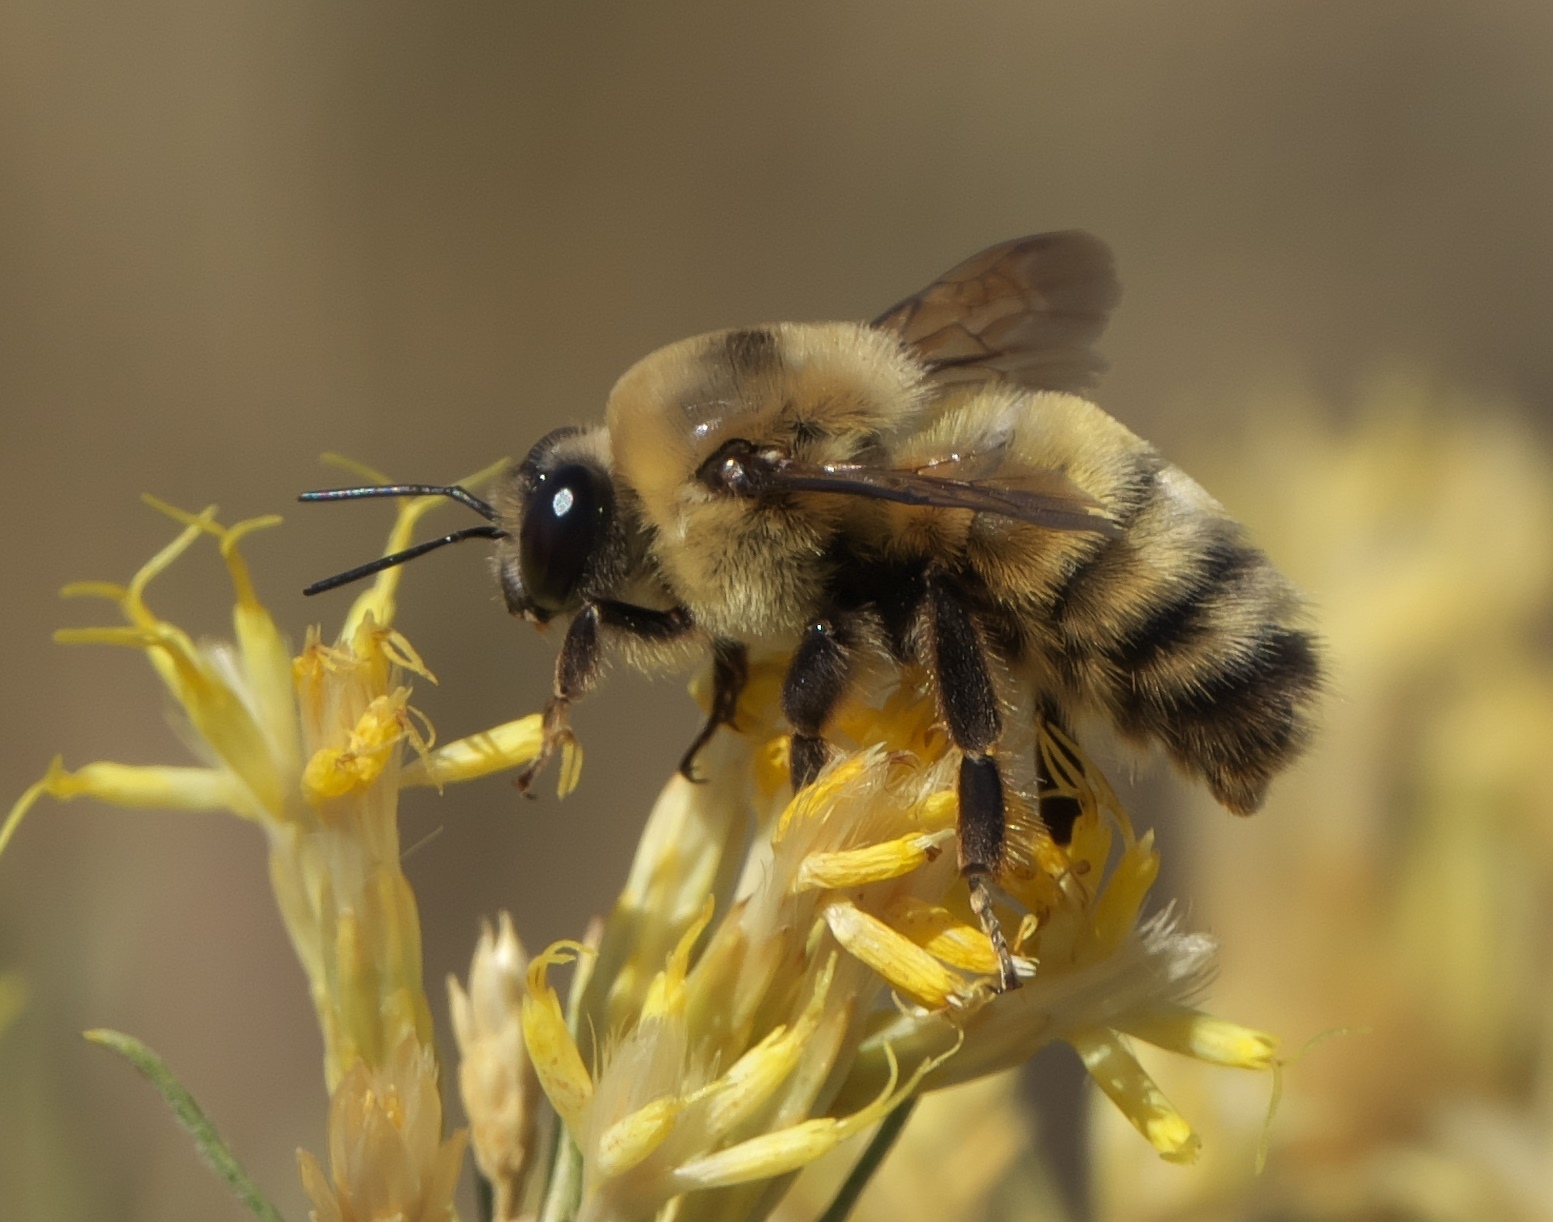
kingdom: Animalia
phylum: Arthropoda
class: Insecta
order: Hymenoptera
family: Apidae
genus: Bombus
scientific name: Bombus nevadensis
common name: Nevada bumble bee
